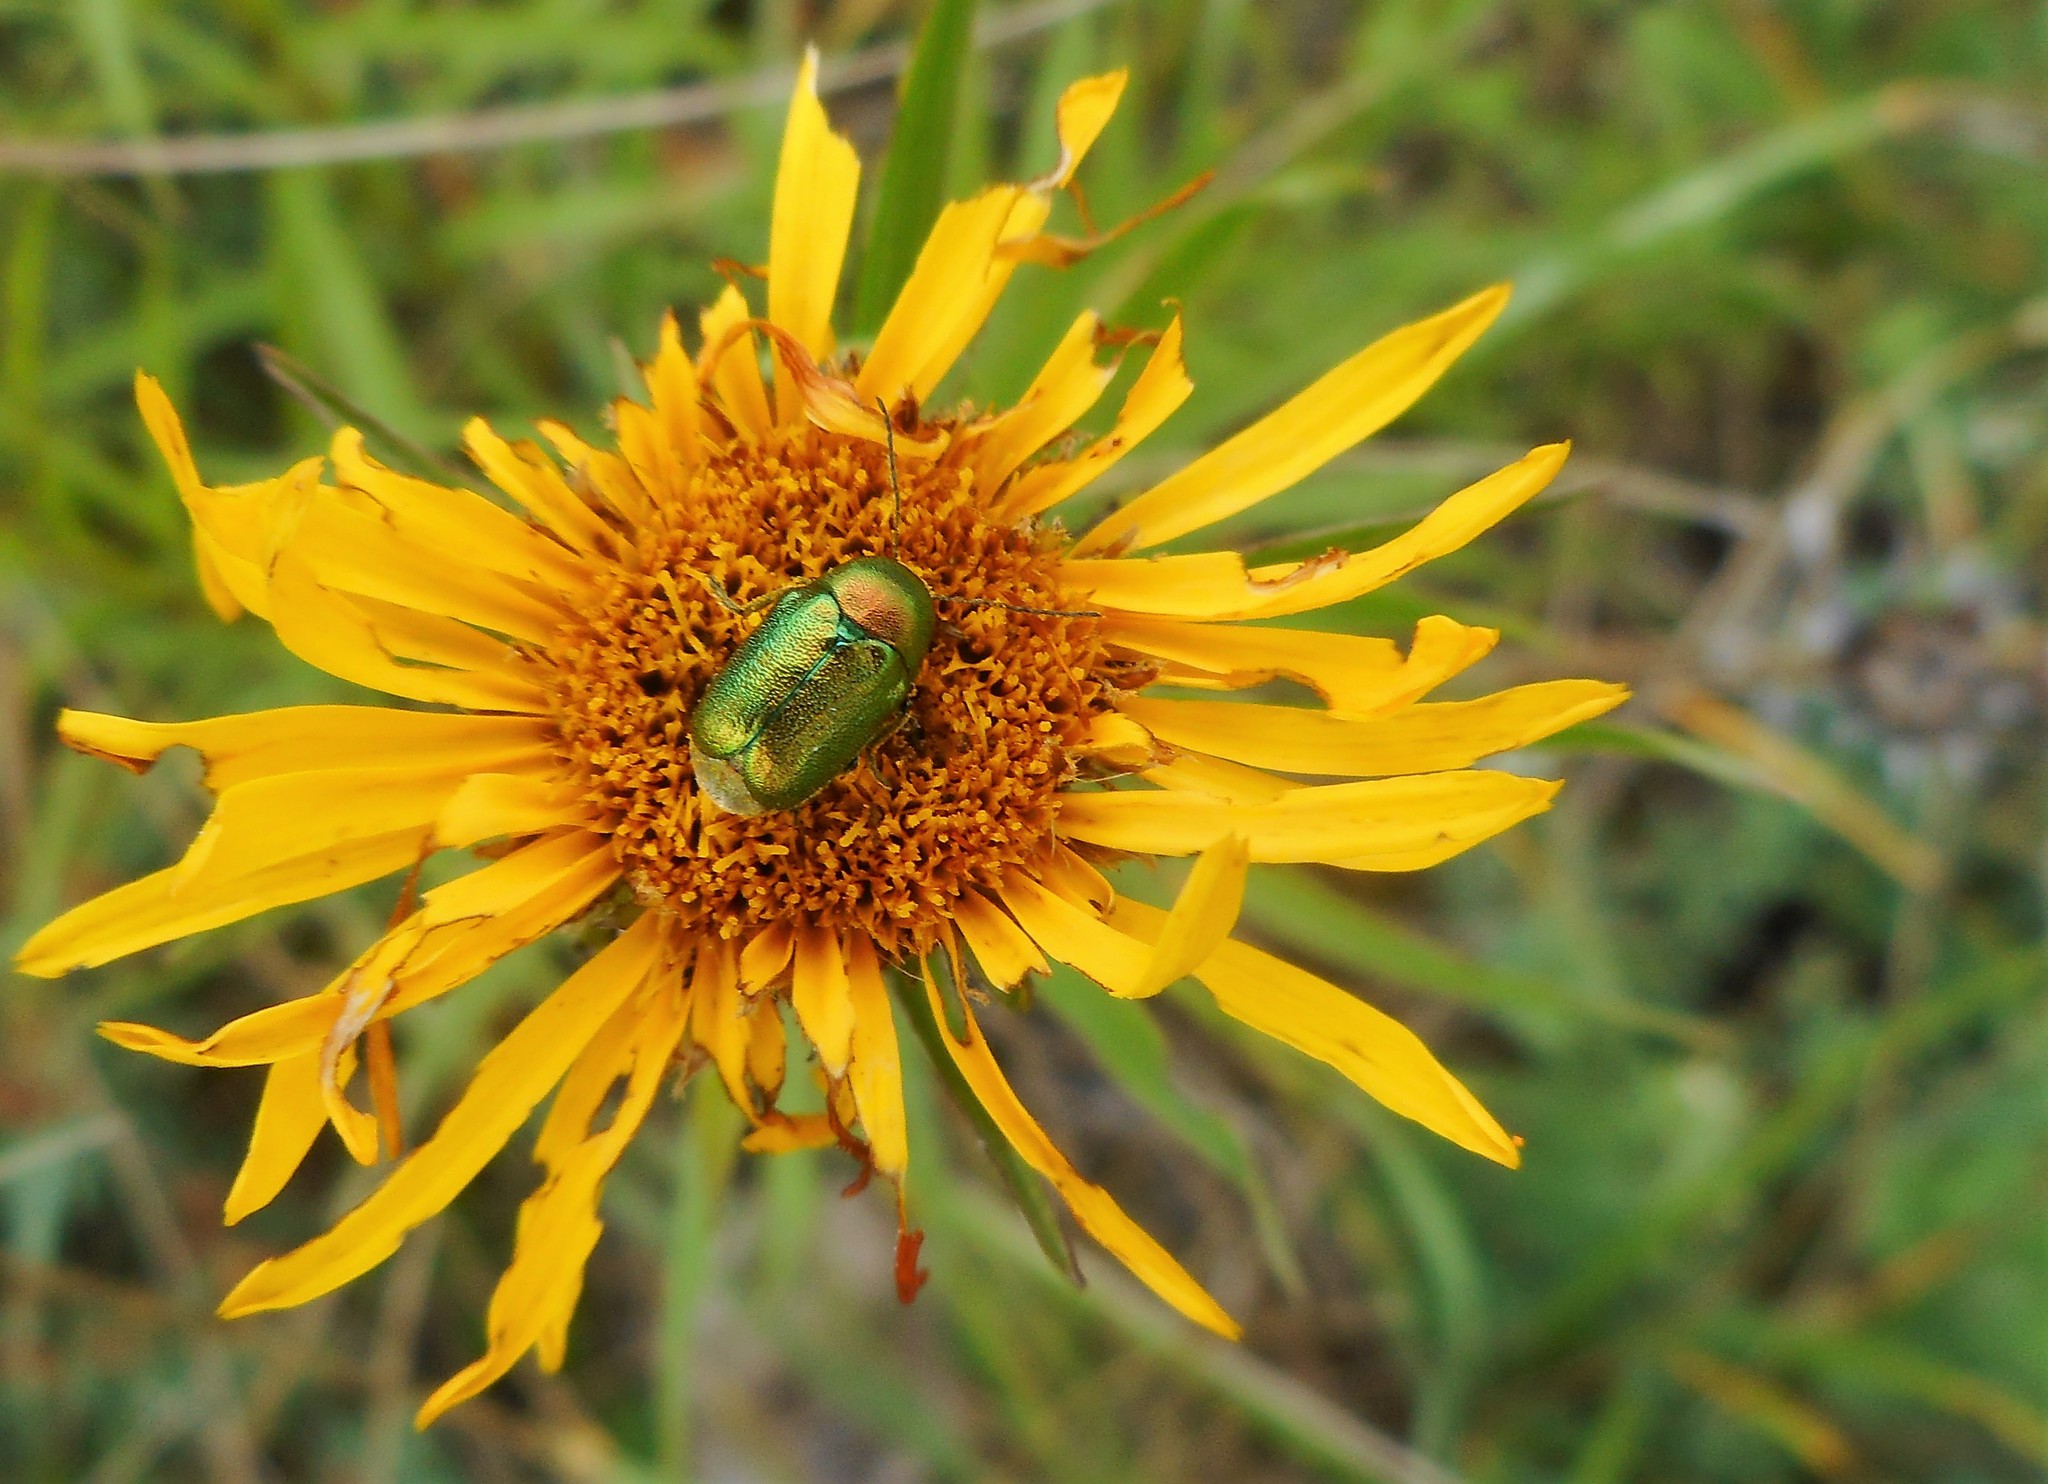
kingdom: Animalia
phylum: Arthropoda
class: Insecta
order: Coleoptera
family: Chrysomelidae
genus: Cryptocephalus
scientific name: Cryptocephalus
